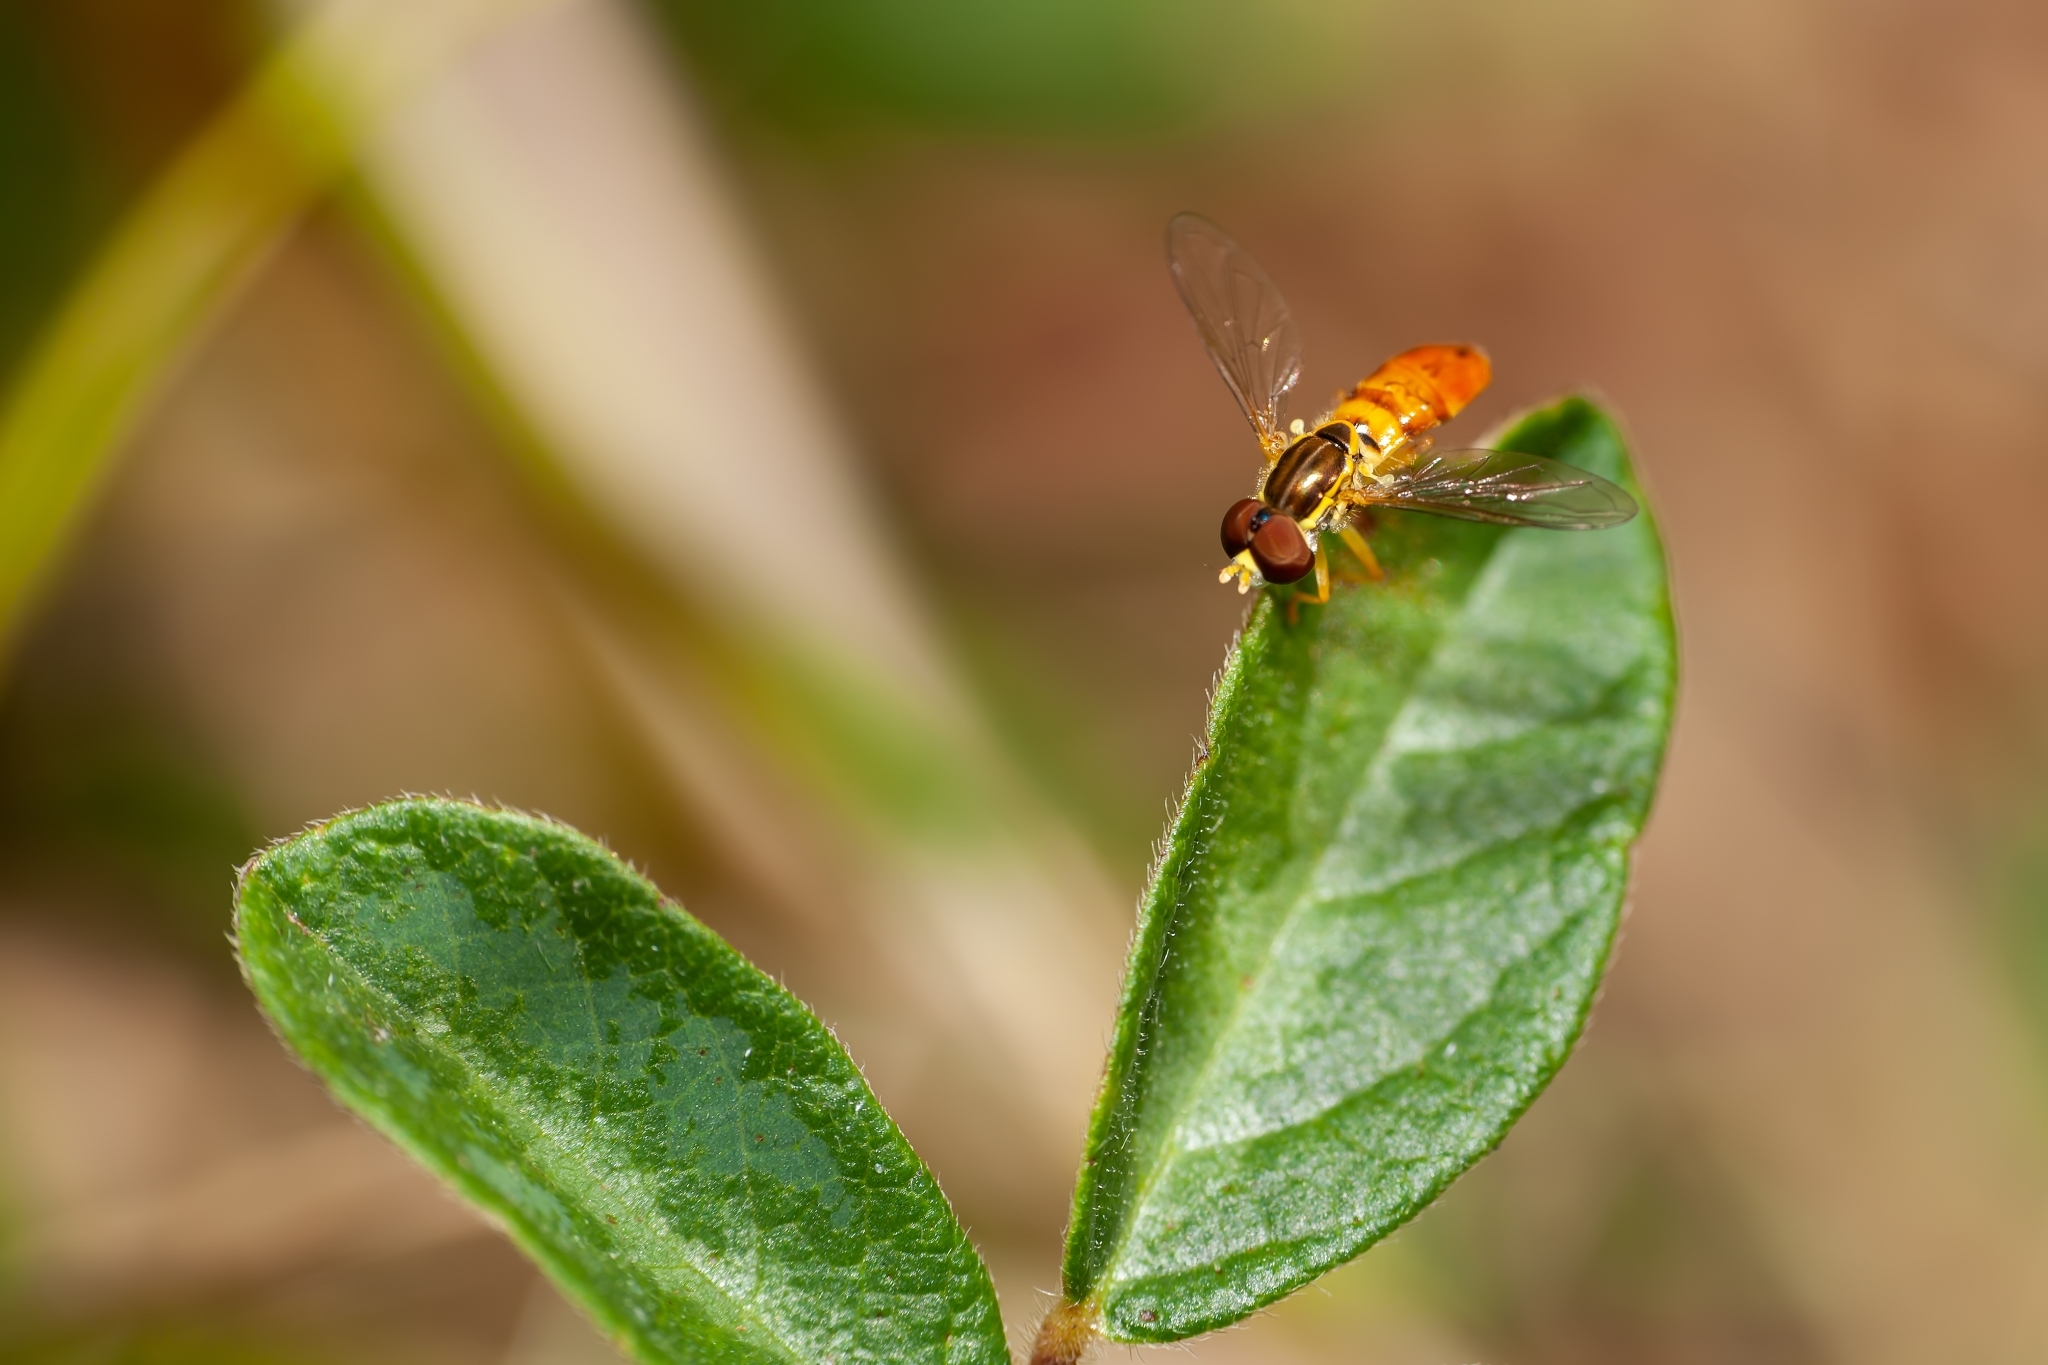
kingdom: Animalia
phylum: Arthropoda
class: Insecta
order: Diptera
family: Syrphidae
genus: Toxomerus
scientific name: Toxomerus floralis
